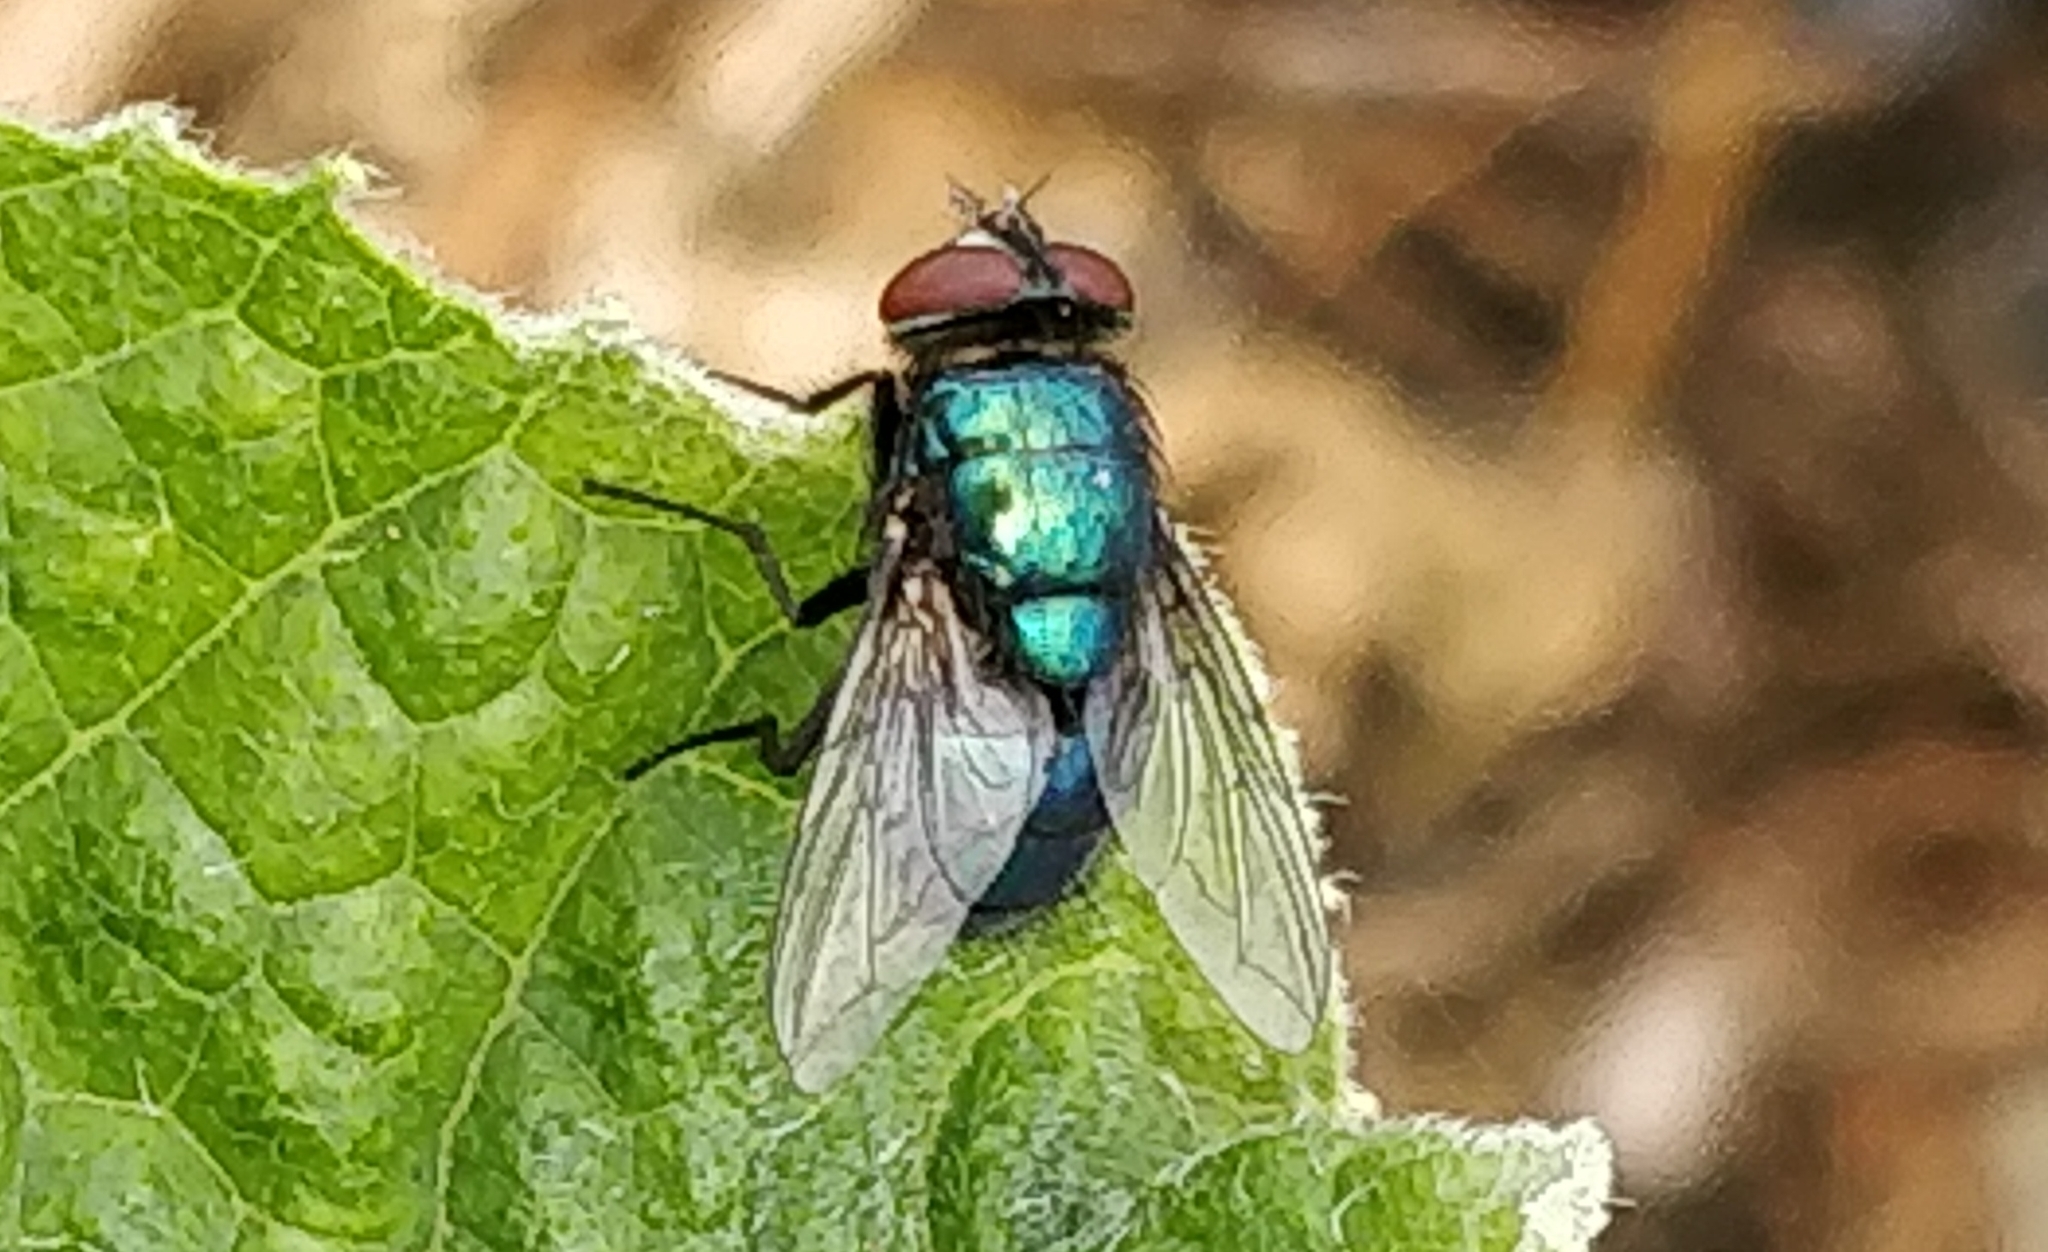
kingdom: Animalia
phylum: Arthropoda
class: Insecta
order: Diptera
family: Calliphoridae
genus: Lucilia
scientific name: Lucilia sericata
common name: Blow fly
